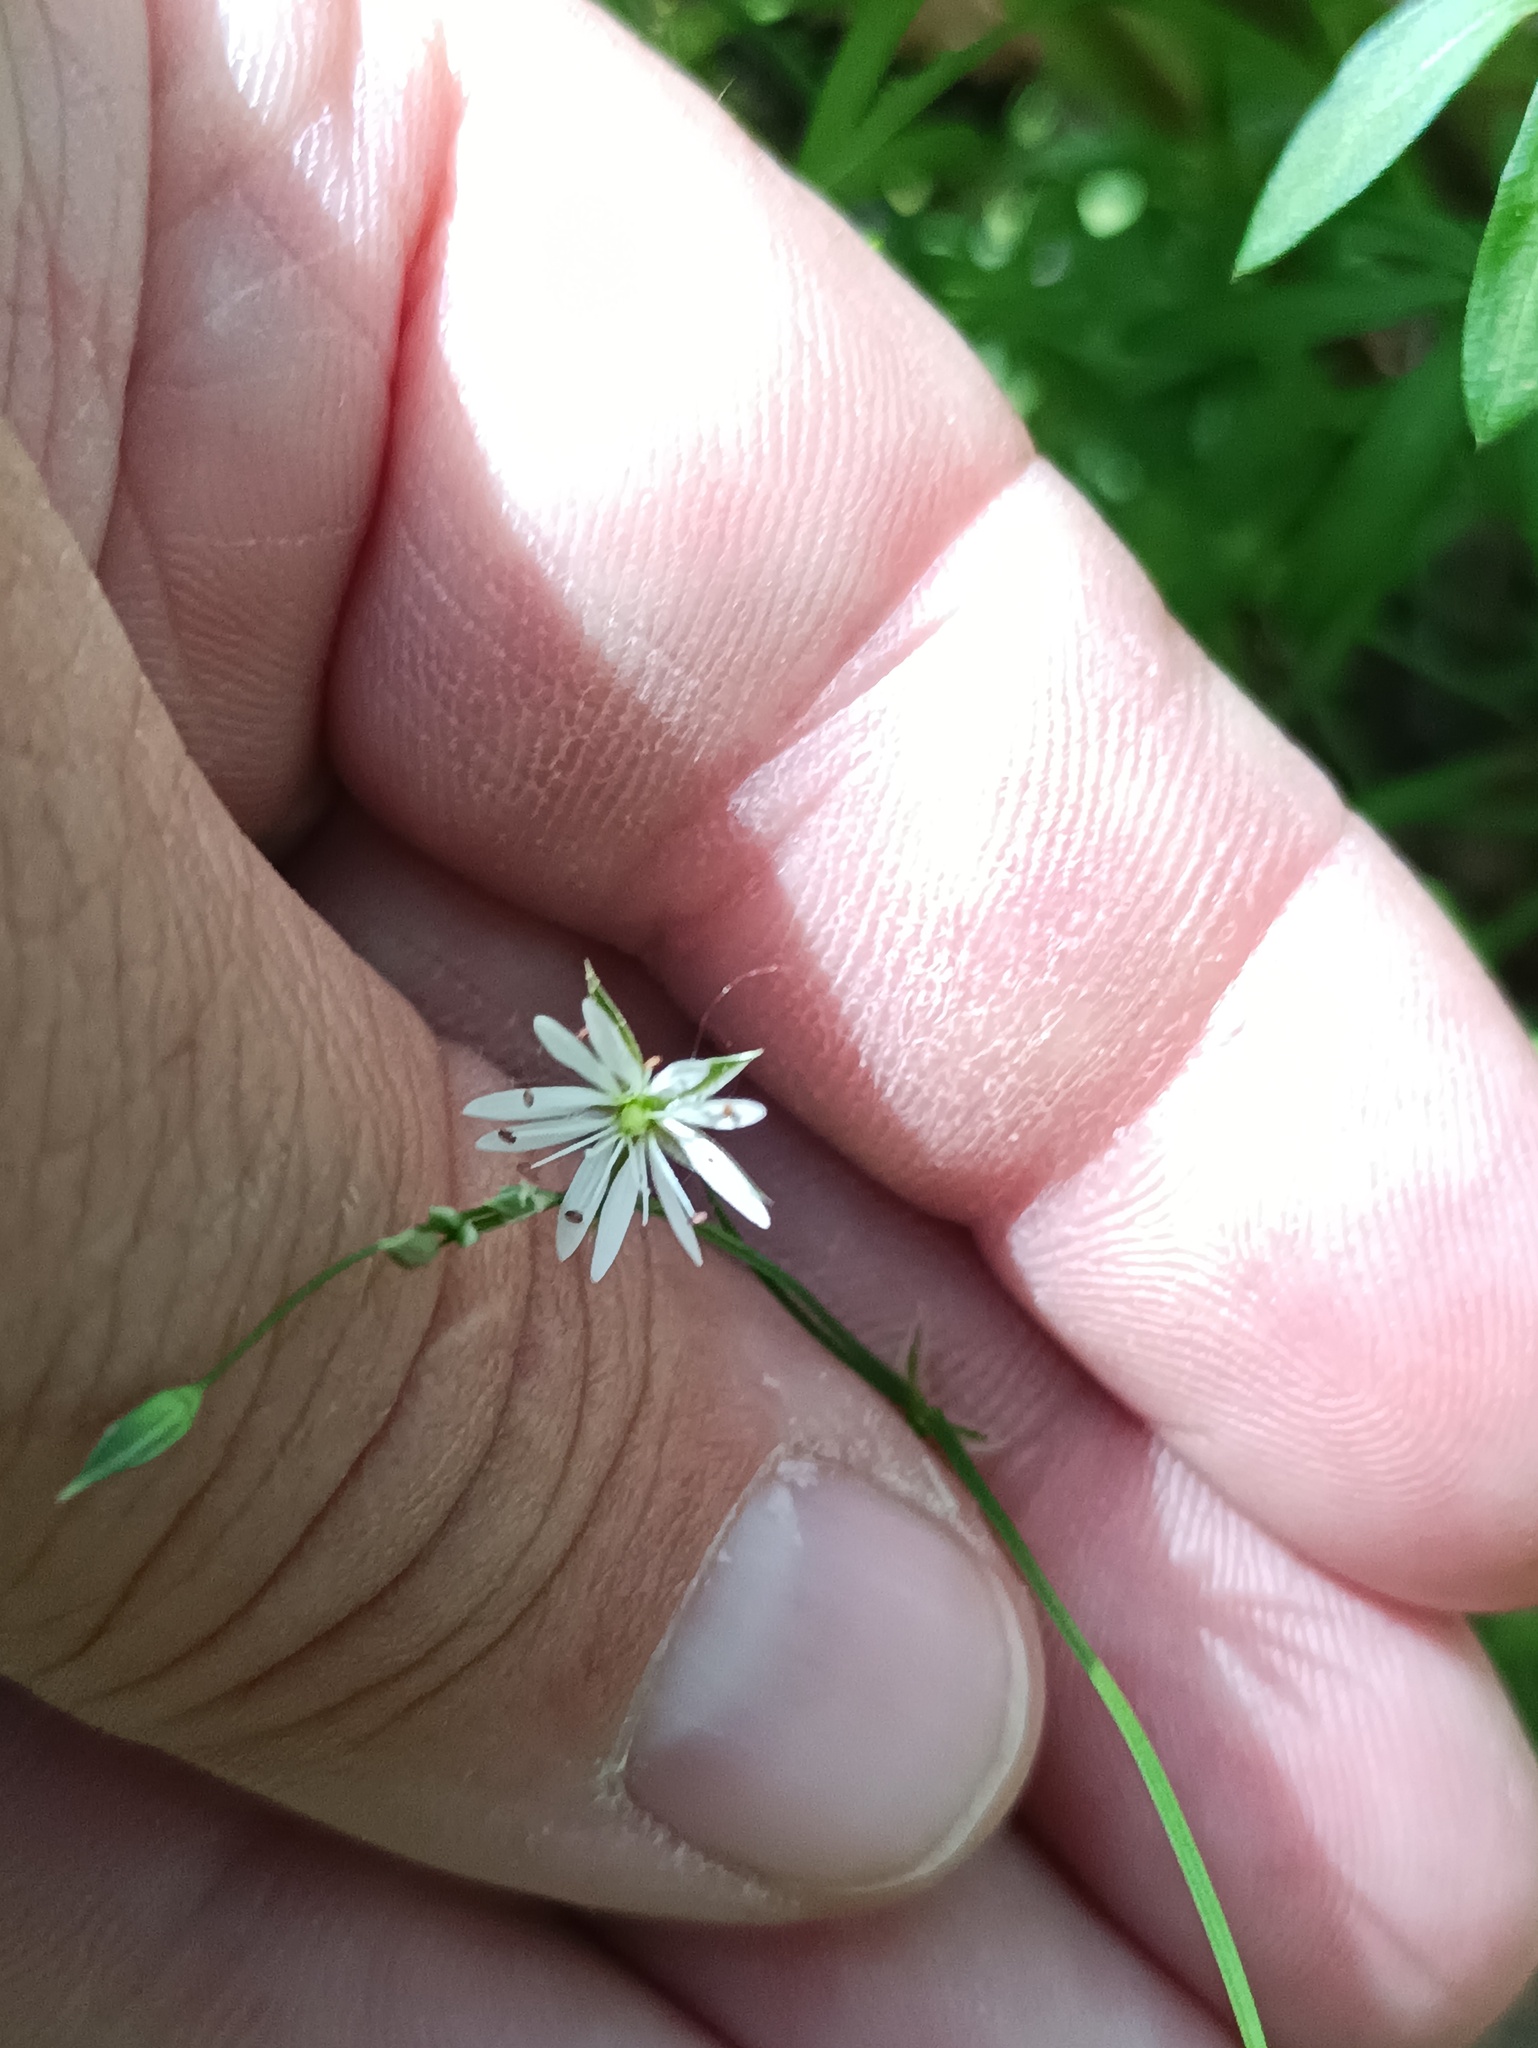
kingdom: Plantae
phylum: Tracheophyta
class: Magnoliopsida
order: Caryophyllales
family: Caryophyllaceae
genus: Stellaria
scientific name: Stellaria graminea
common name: Grass-like starwort
